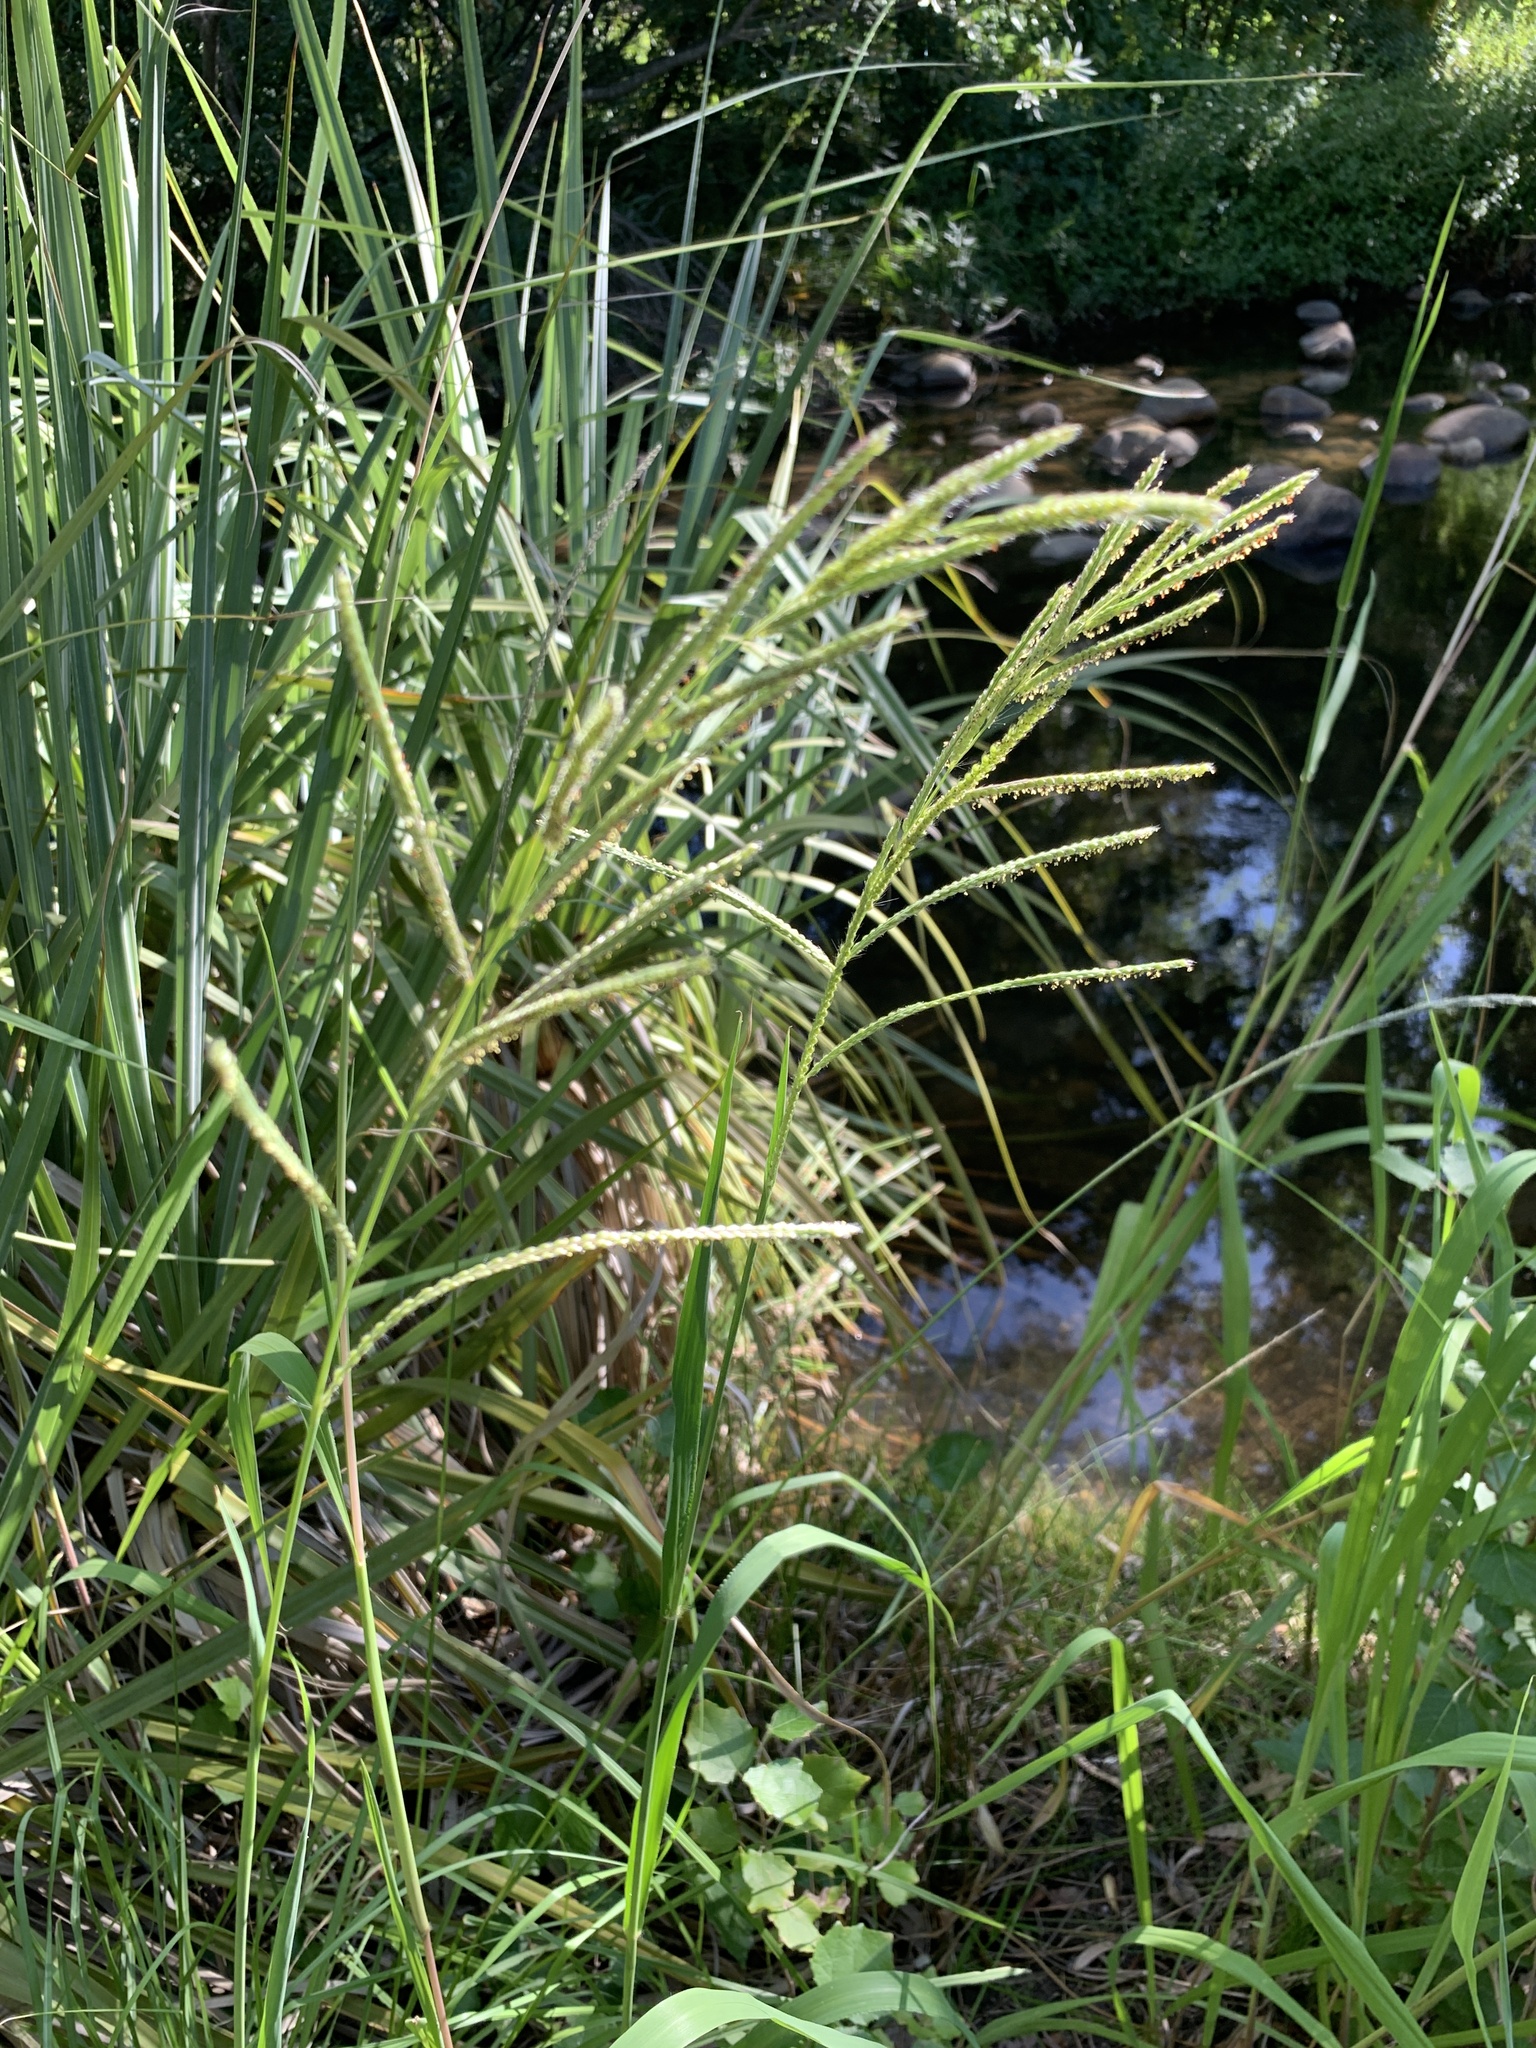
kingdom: Plantae
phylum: Tracheophyta
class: Liliopsida
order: Poales
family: Poaceae
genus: Paspalum
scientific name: Paspalum urvillei
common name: Vasey's grass
